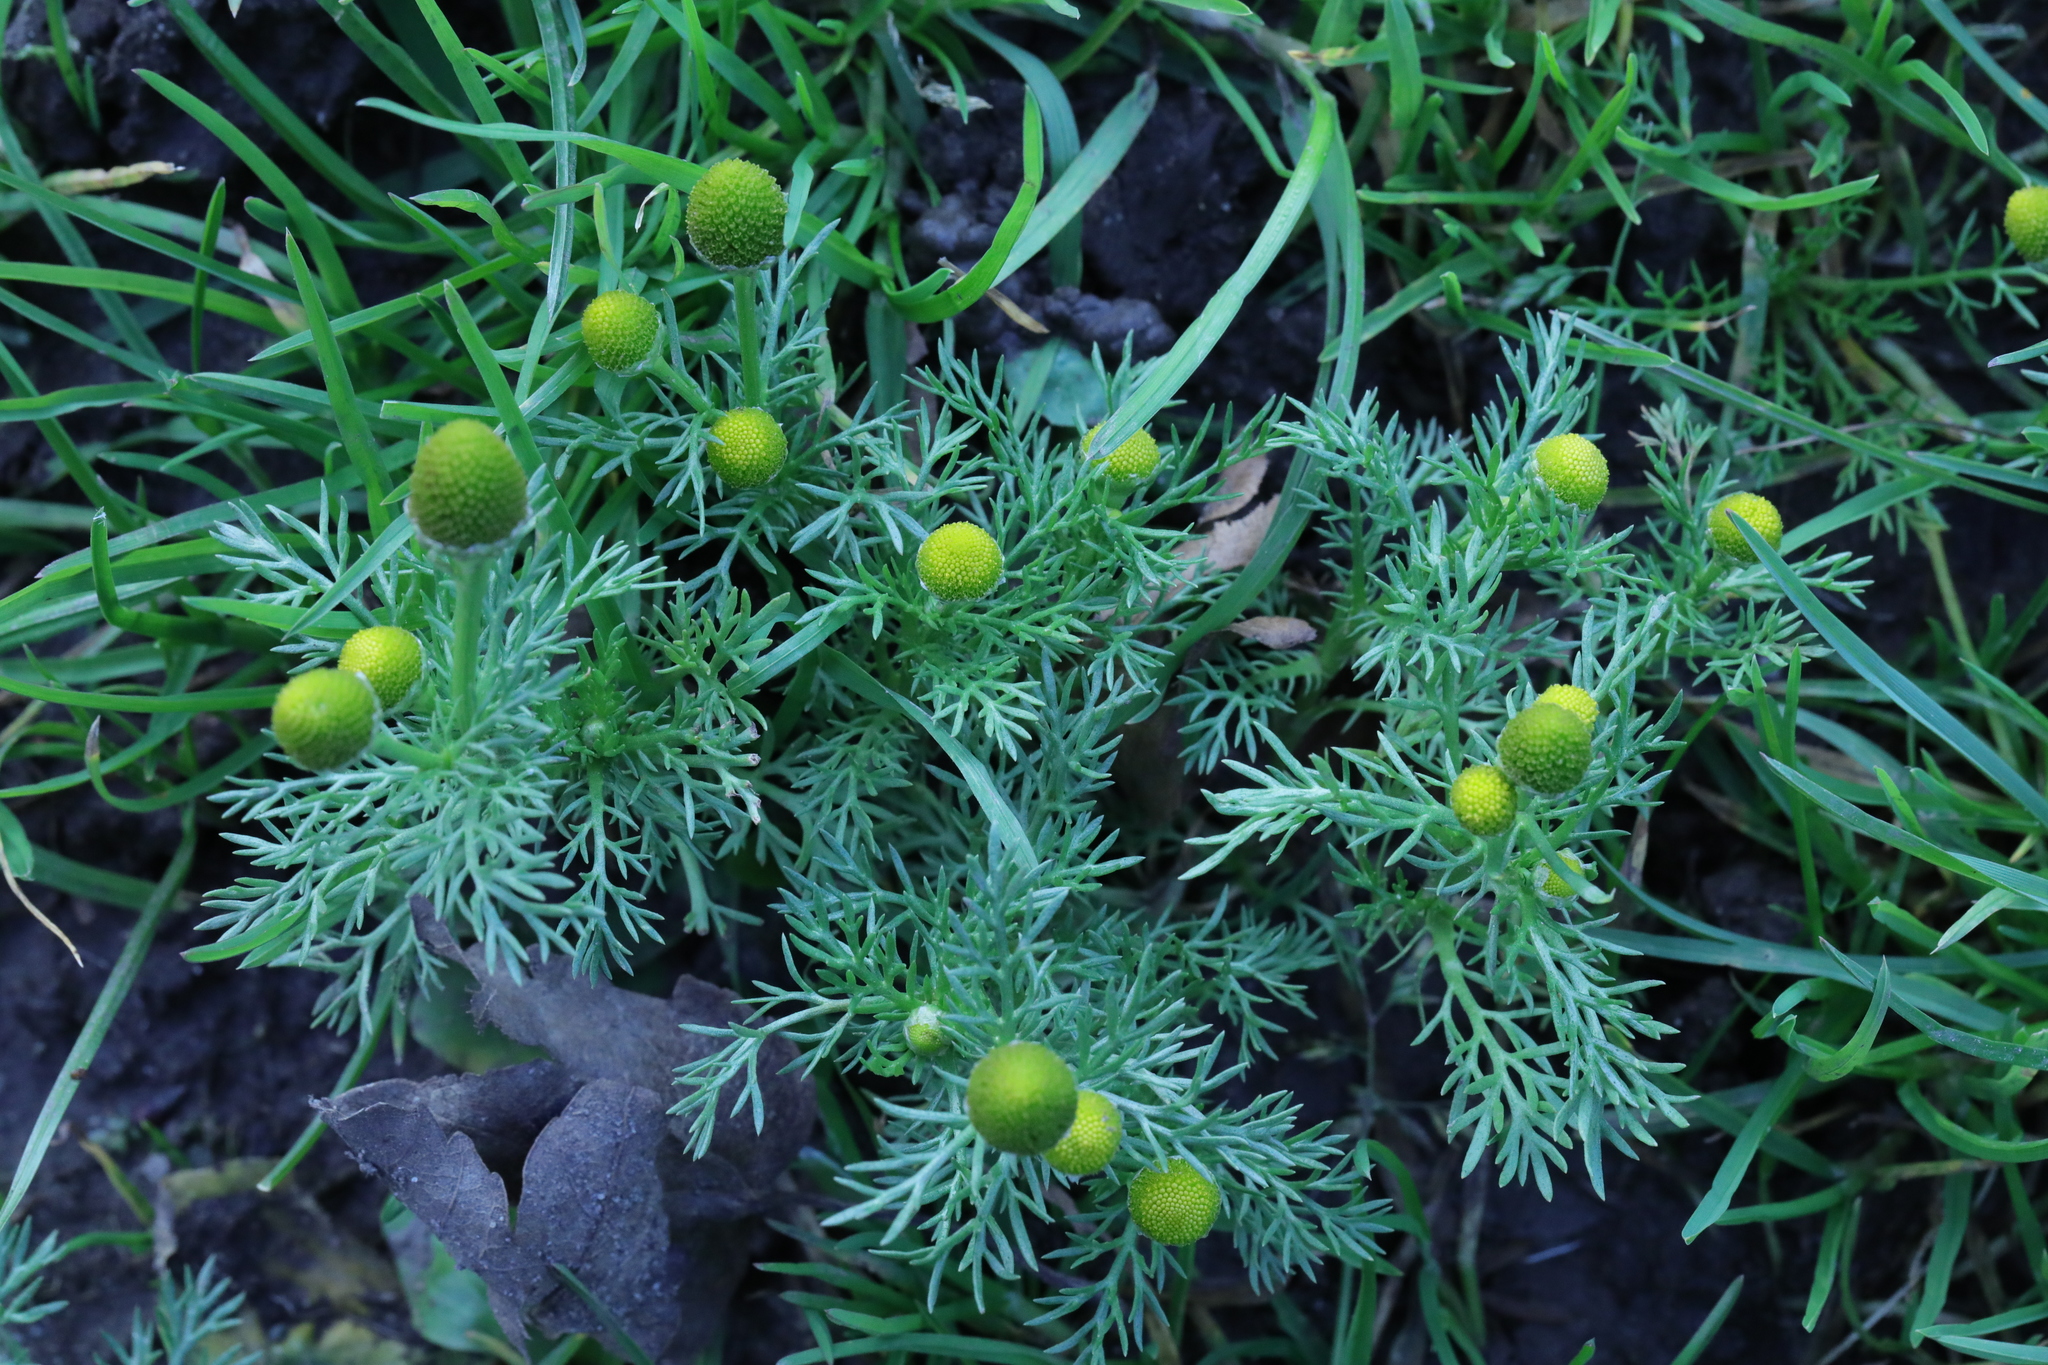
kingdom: Plantae
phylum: Tracheophyta
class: Magnoliopsida
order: Asterales
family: Asteraceae
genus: Matricaria
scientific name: Matricaria discoidea
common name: Disc mayweed
